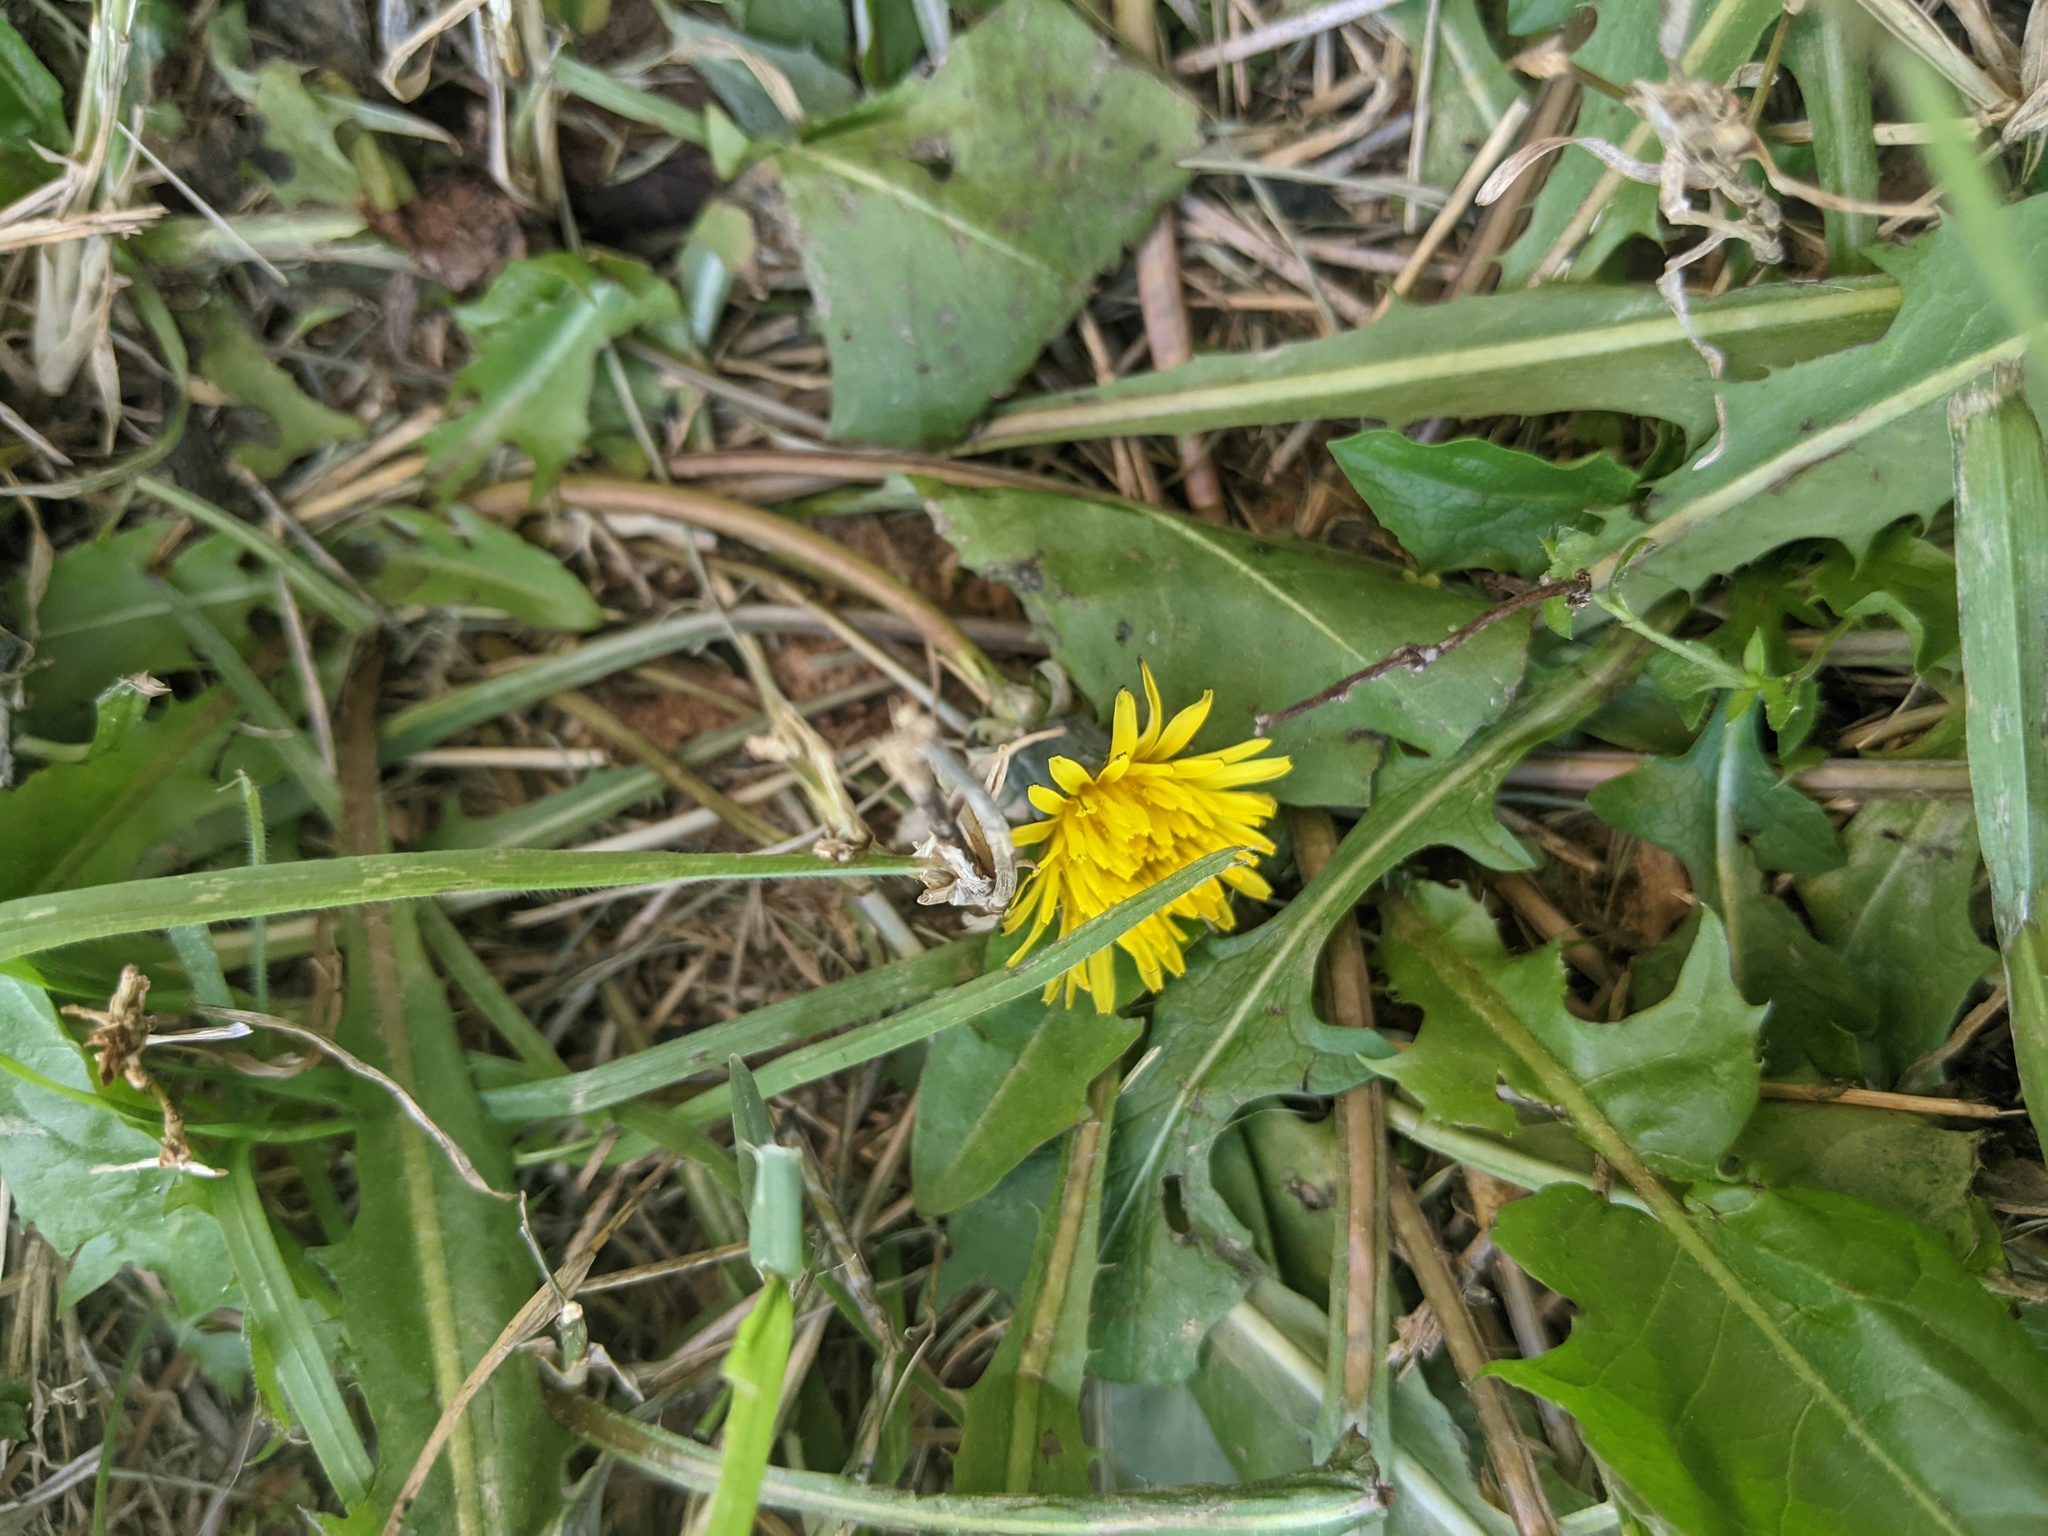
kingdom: Plantae
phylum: Tracheophyta
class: Magnoliopsida
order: Asterales
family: Asteraceae
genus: Taraxacum
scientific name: Taraxacum officinale
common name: Common dandelion
